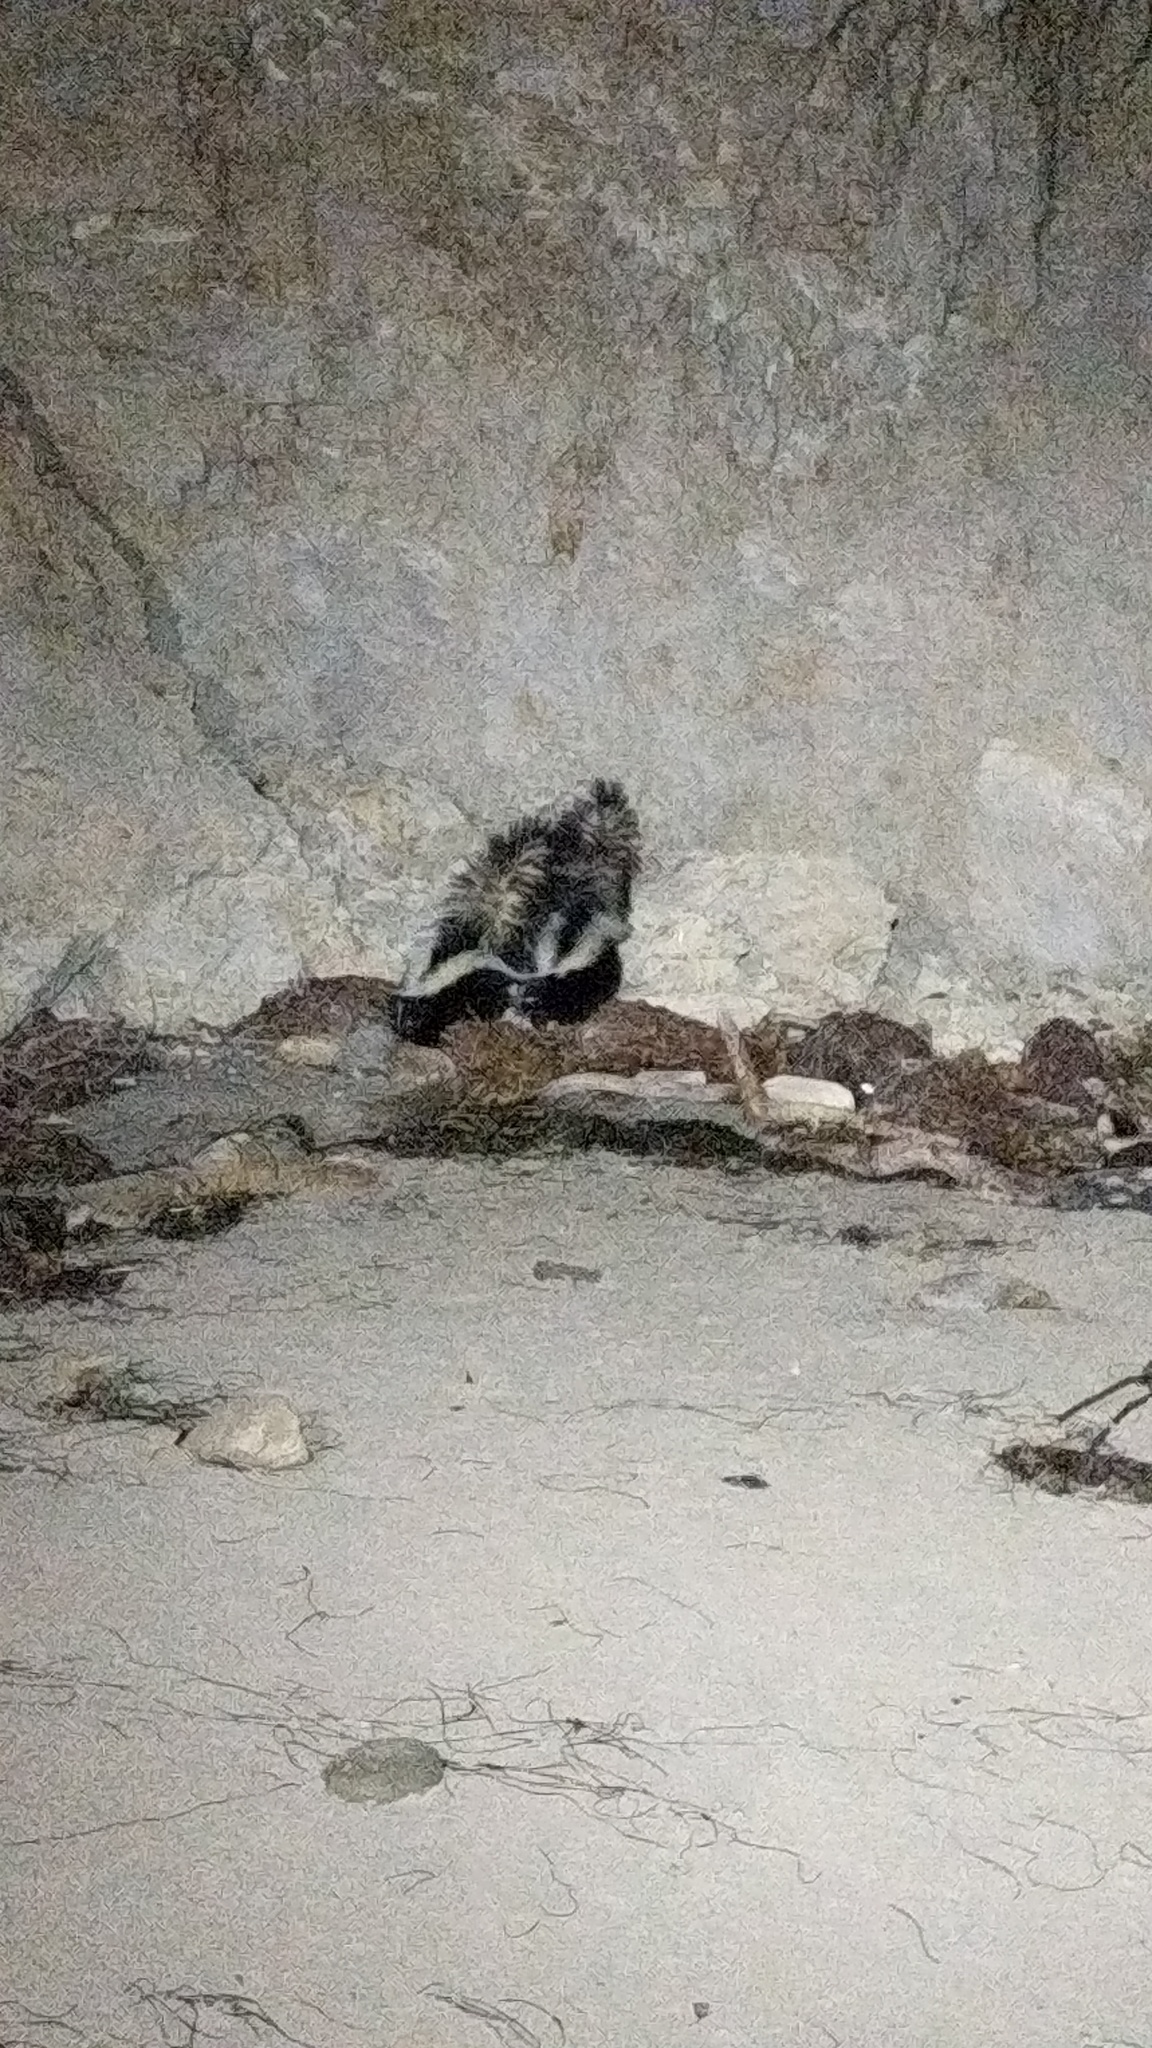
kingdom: Animalia
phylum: Chordata
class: Mammalia
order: Carnivora
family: Mephitidae
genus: Mephitis
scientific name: Mephitis mephitis
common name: Striped skunk
